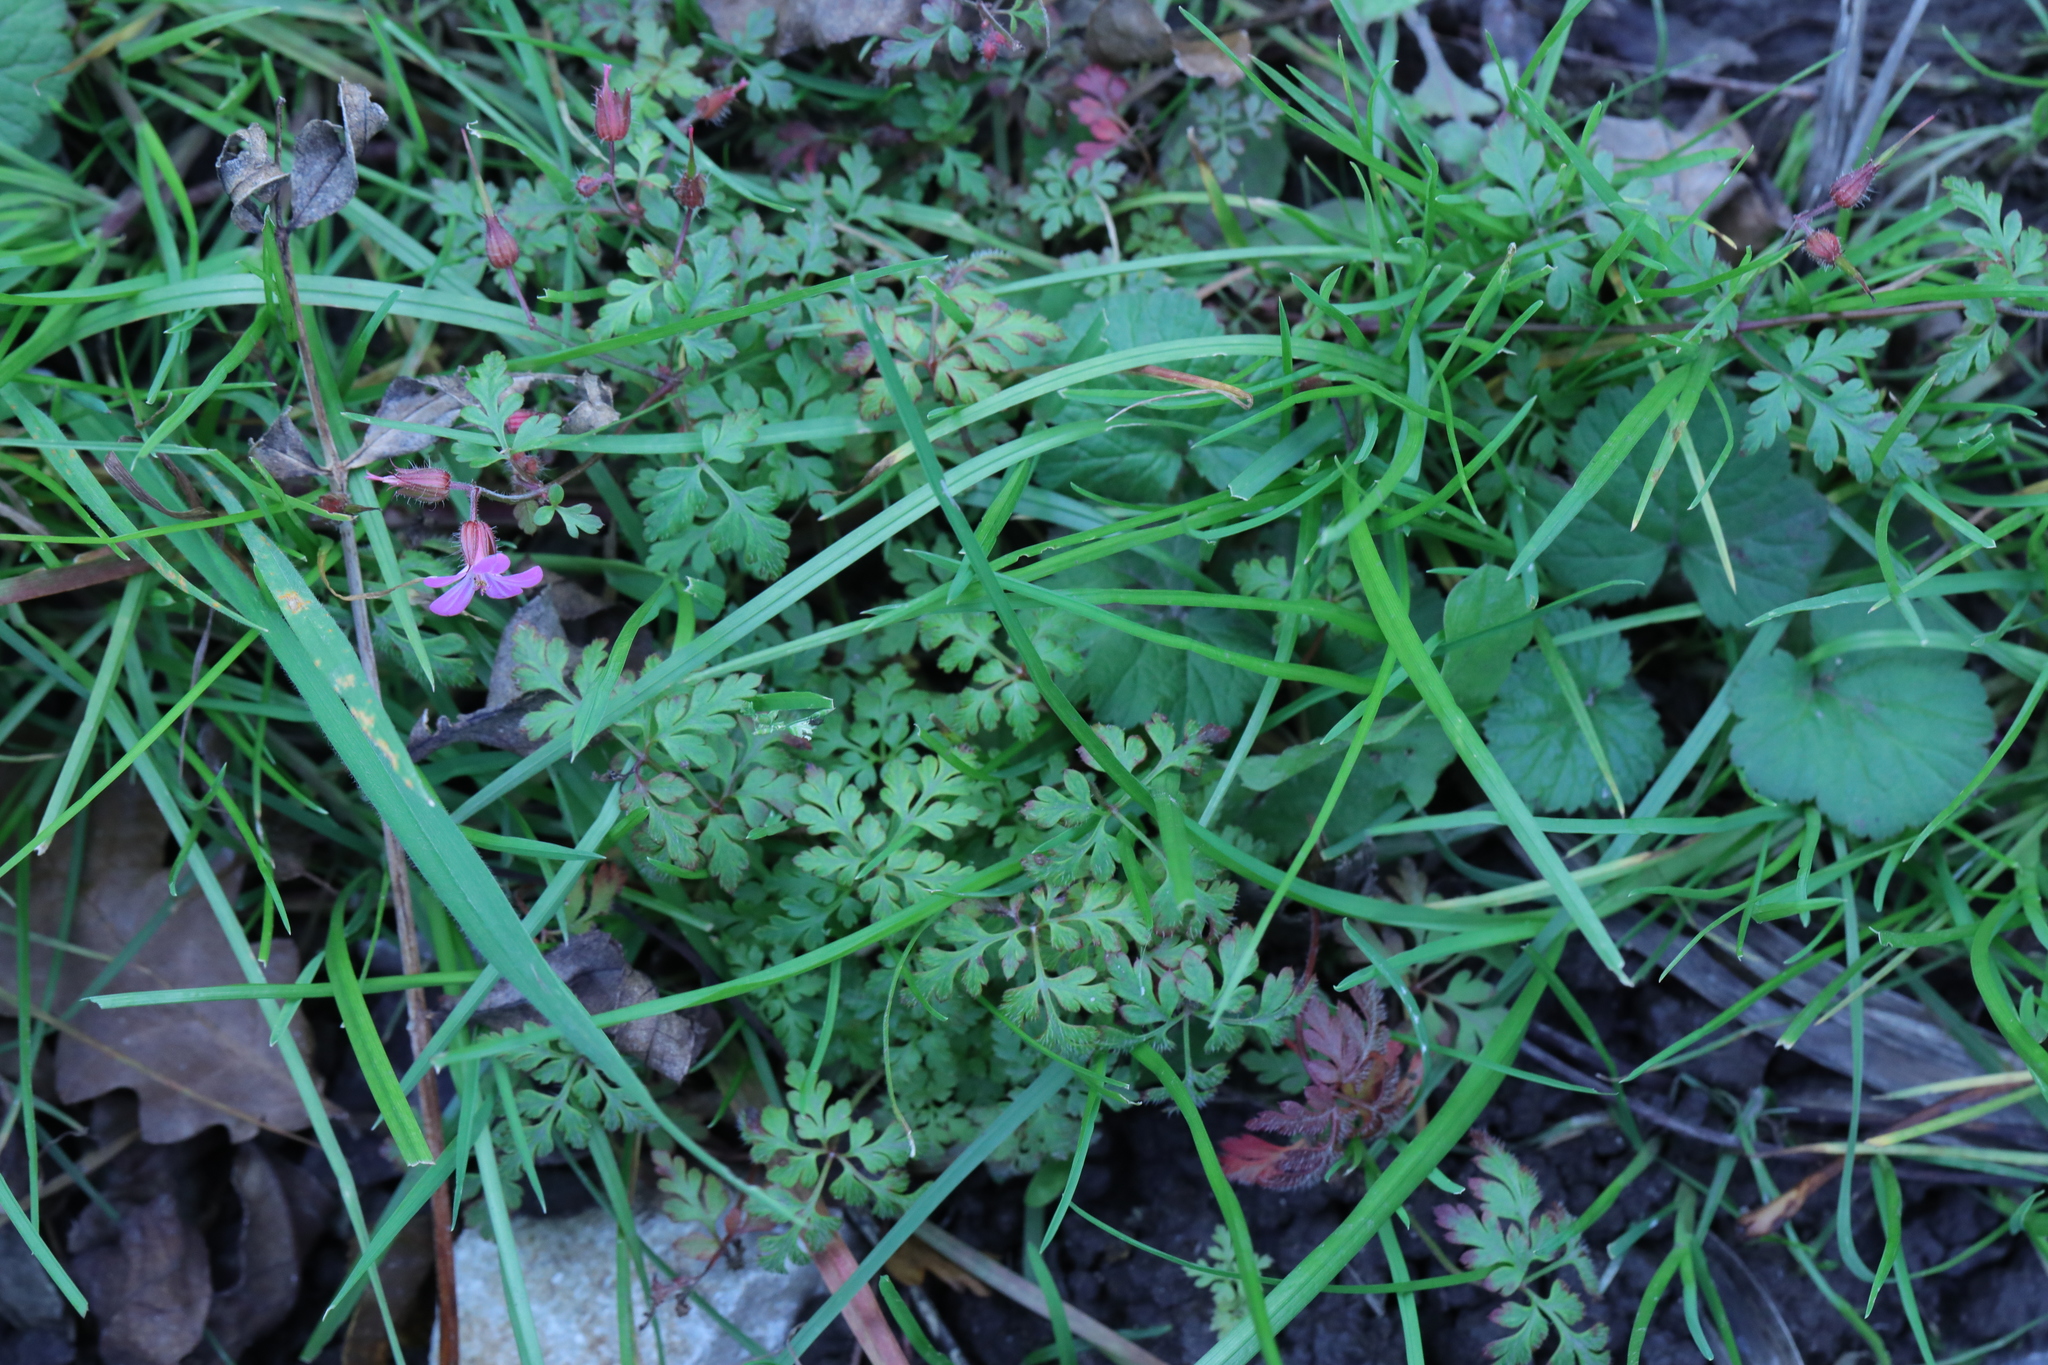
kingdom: Plantae
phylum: Tracheophyta
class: Magnoliopsida
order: Geraniales
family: Geraniaceae
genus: Geranium
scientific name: Geranium robertianum
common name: Herb-robert
